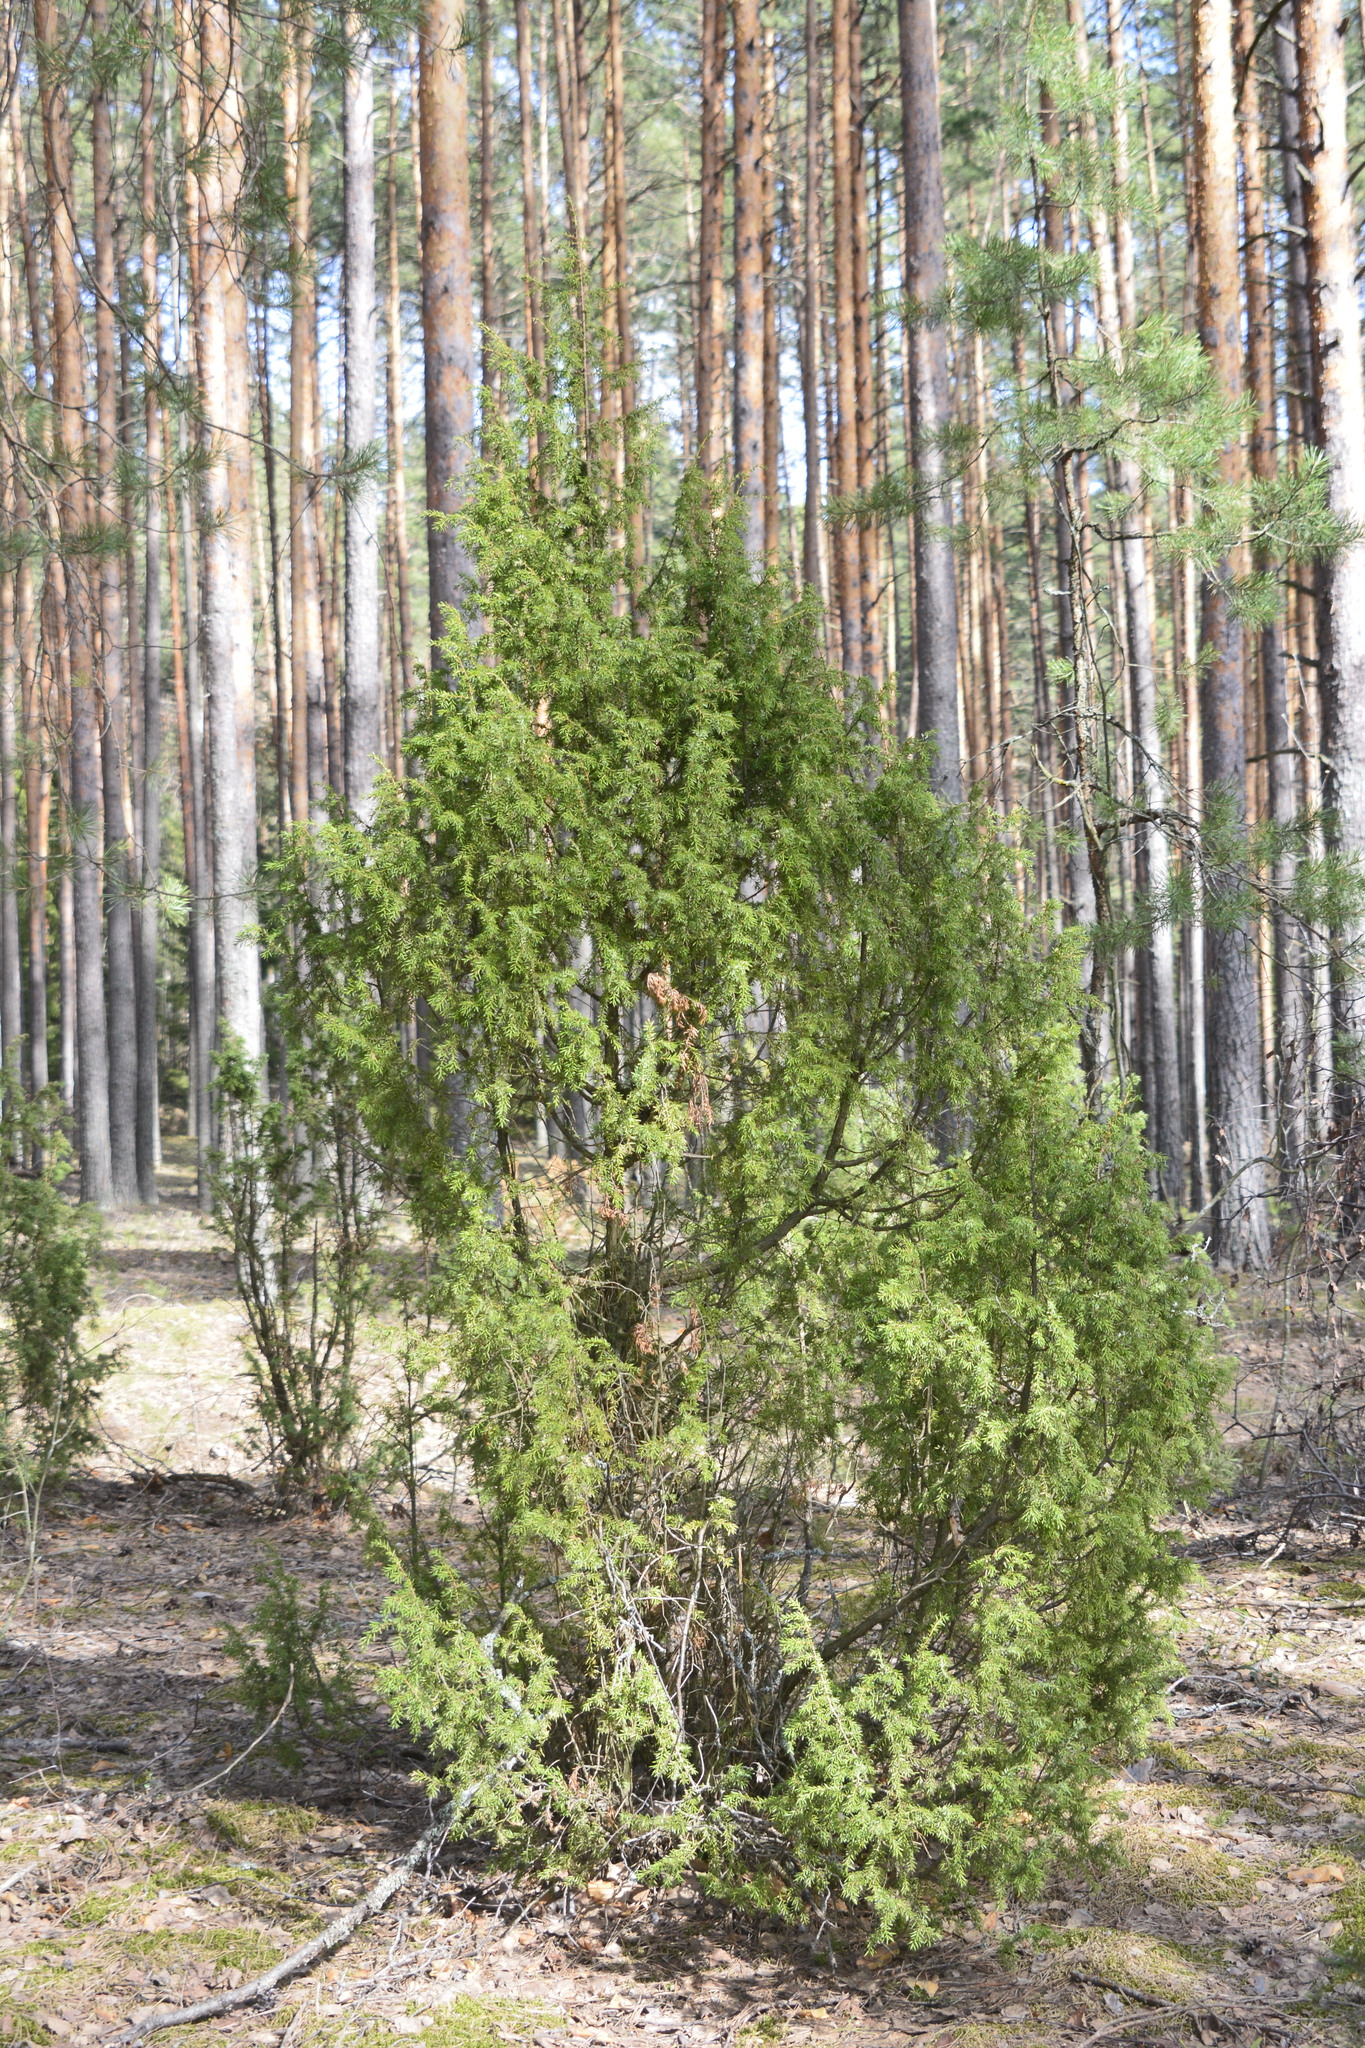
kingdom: Plantae
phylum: Tracheophyta
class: Pinopsida
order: Pinales
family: Cupressaceae
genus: Juniperus
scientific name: Juniperus communis
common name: Common juniper
